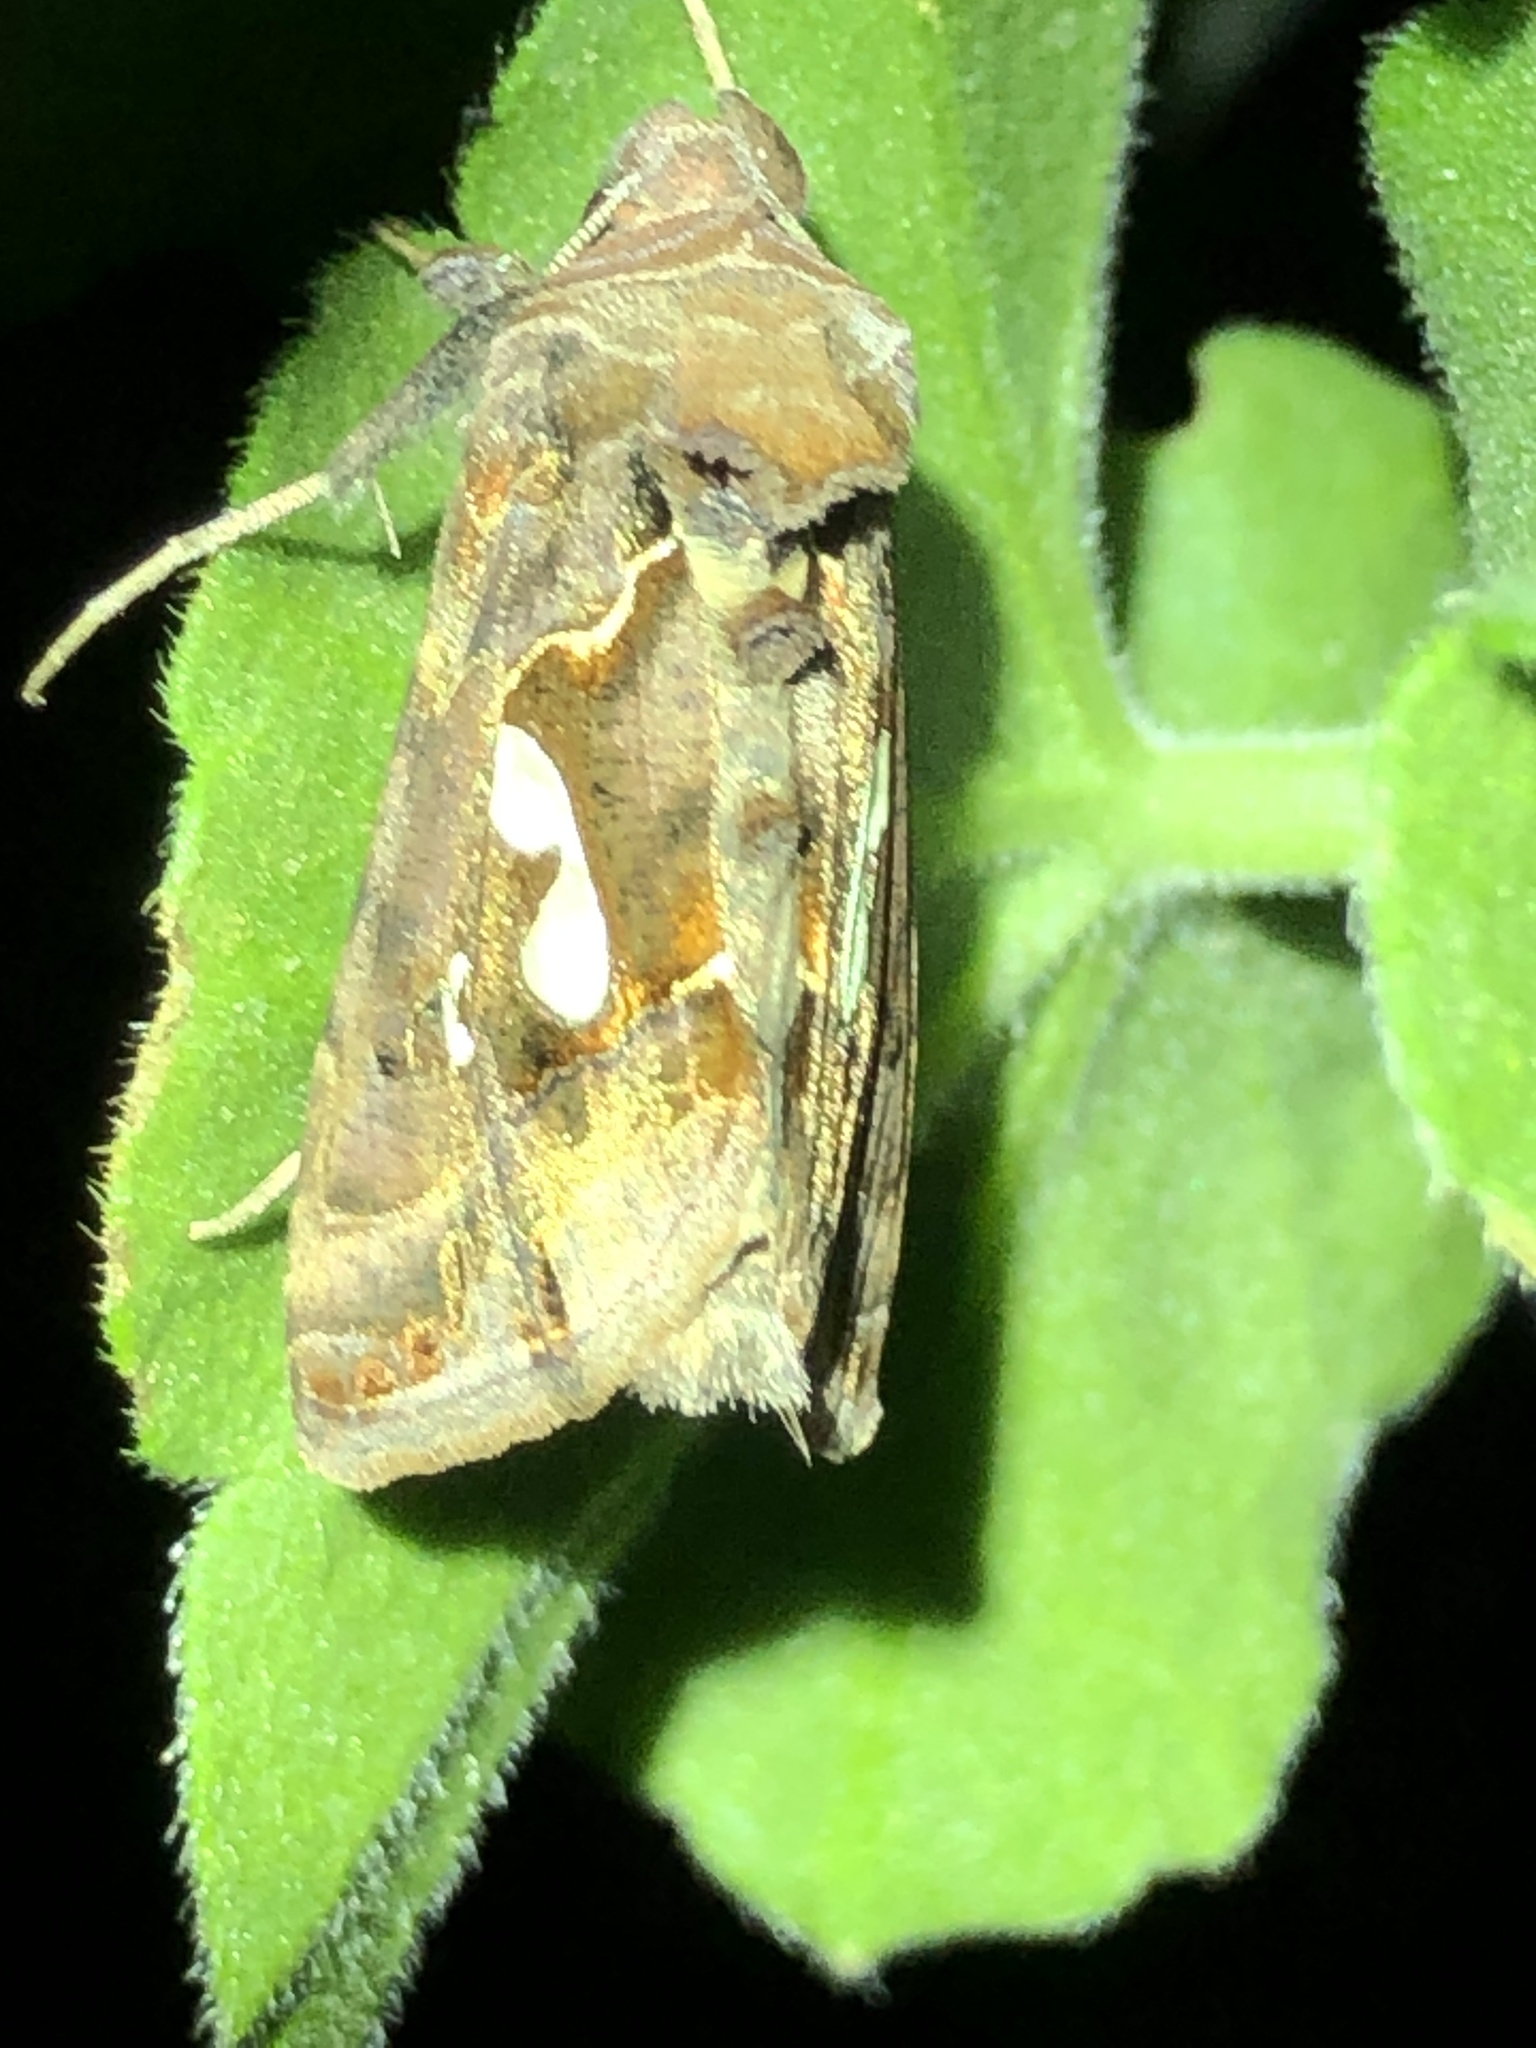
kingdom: Animalia
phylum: Arthropoda
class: Insecta
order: Lepidoptera
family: Noctuidae
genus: Megalographa
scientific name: Megalographa biloba
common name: Cutworm
